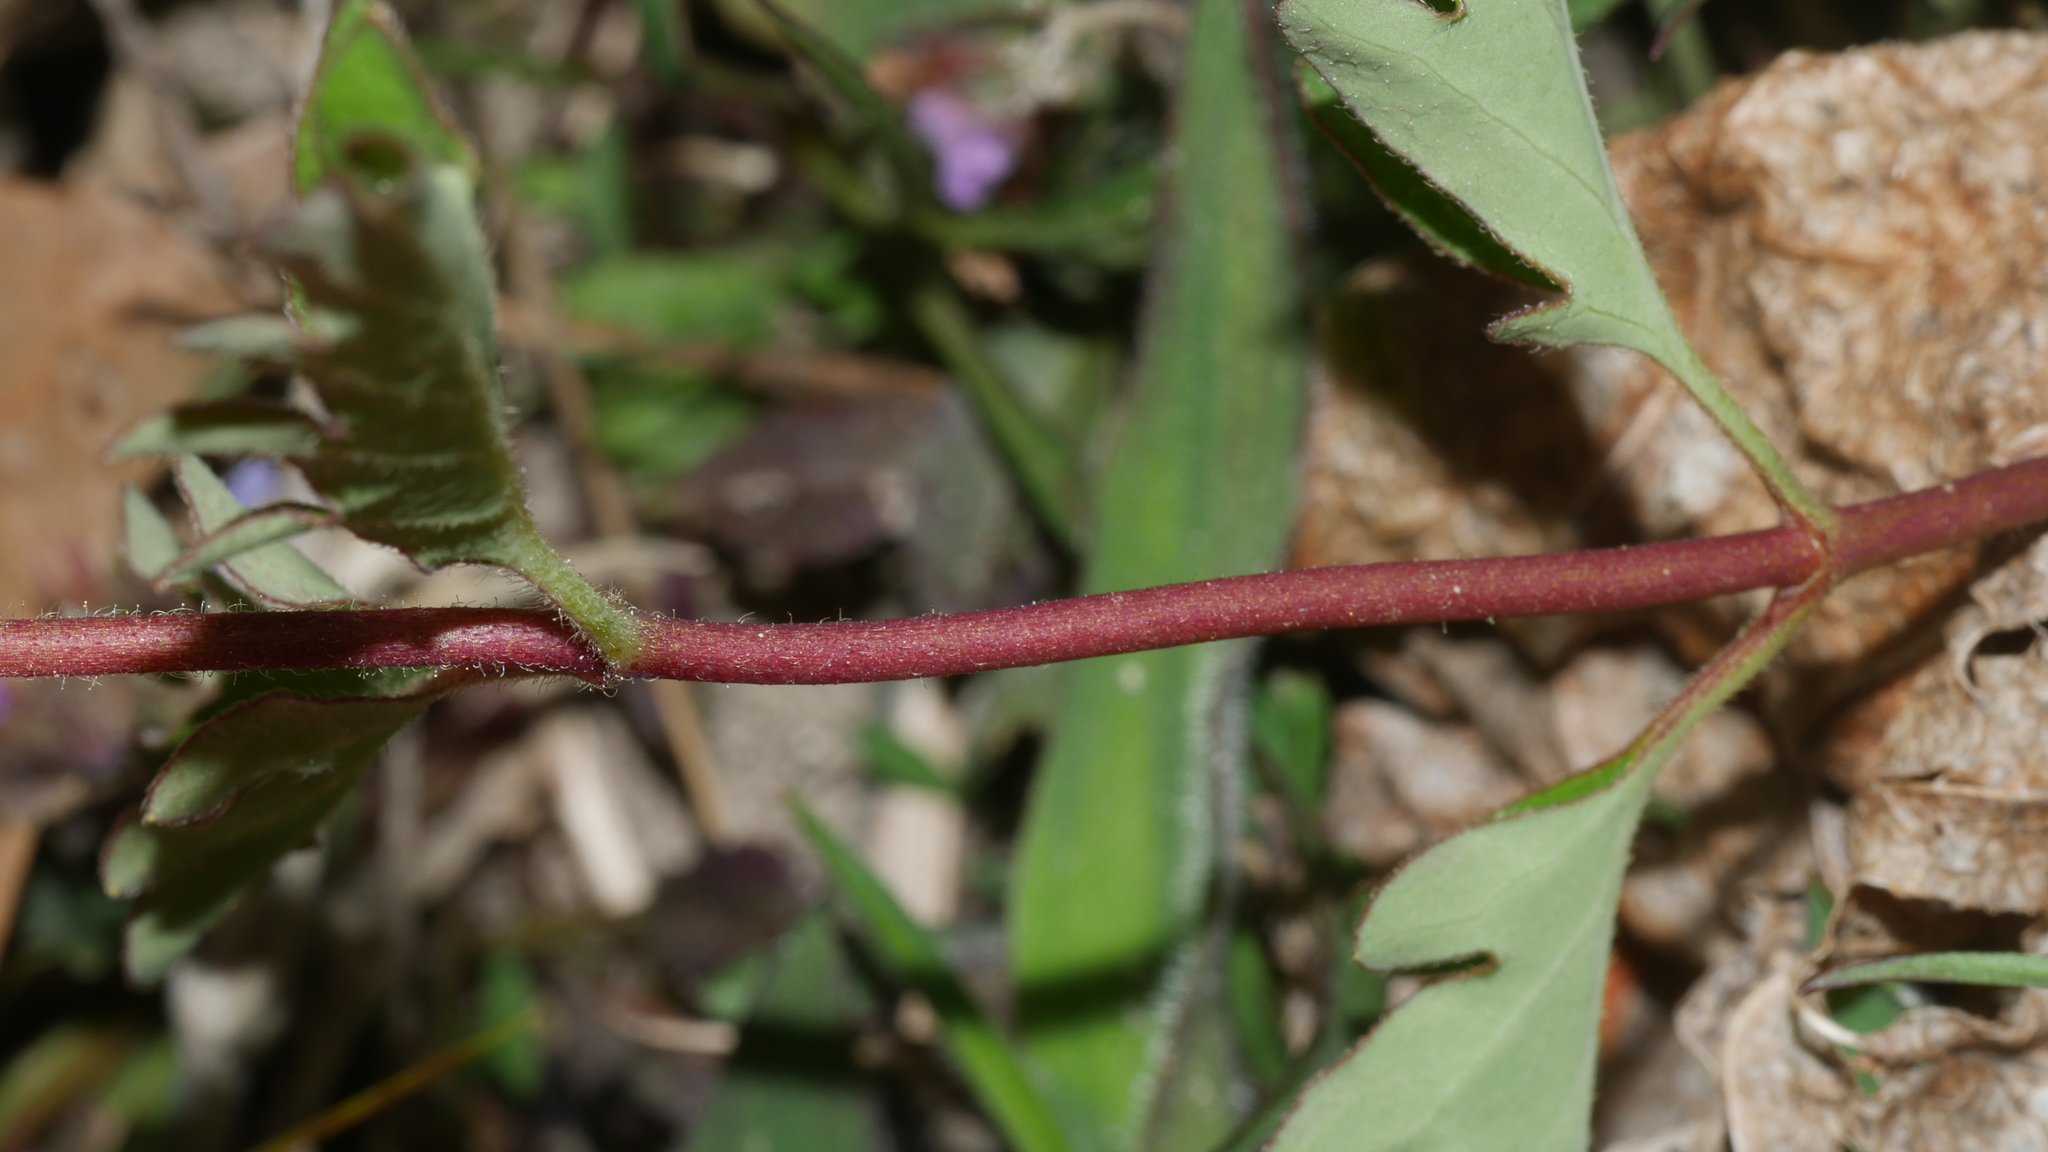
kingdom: Plantae
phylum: Tracheophyta
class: Magnoliopsida
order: Dipsacales
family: Caprifoliaceae
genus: Lonicera
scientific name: Lonicera japonica
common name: Japanese honeysuckle
